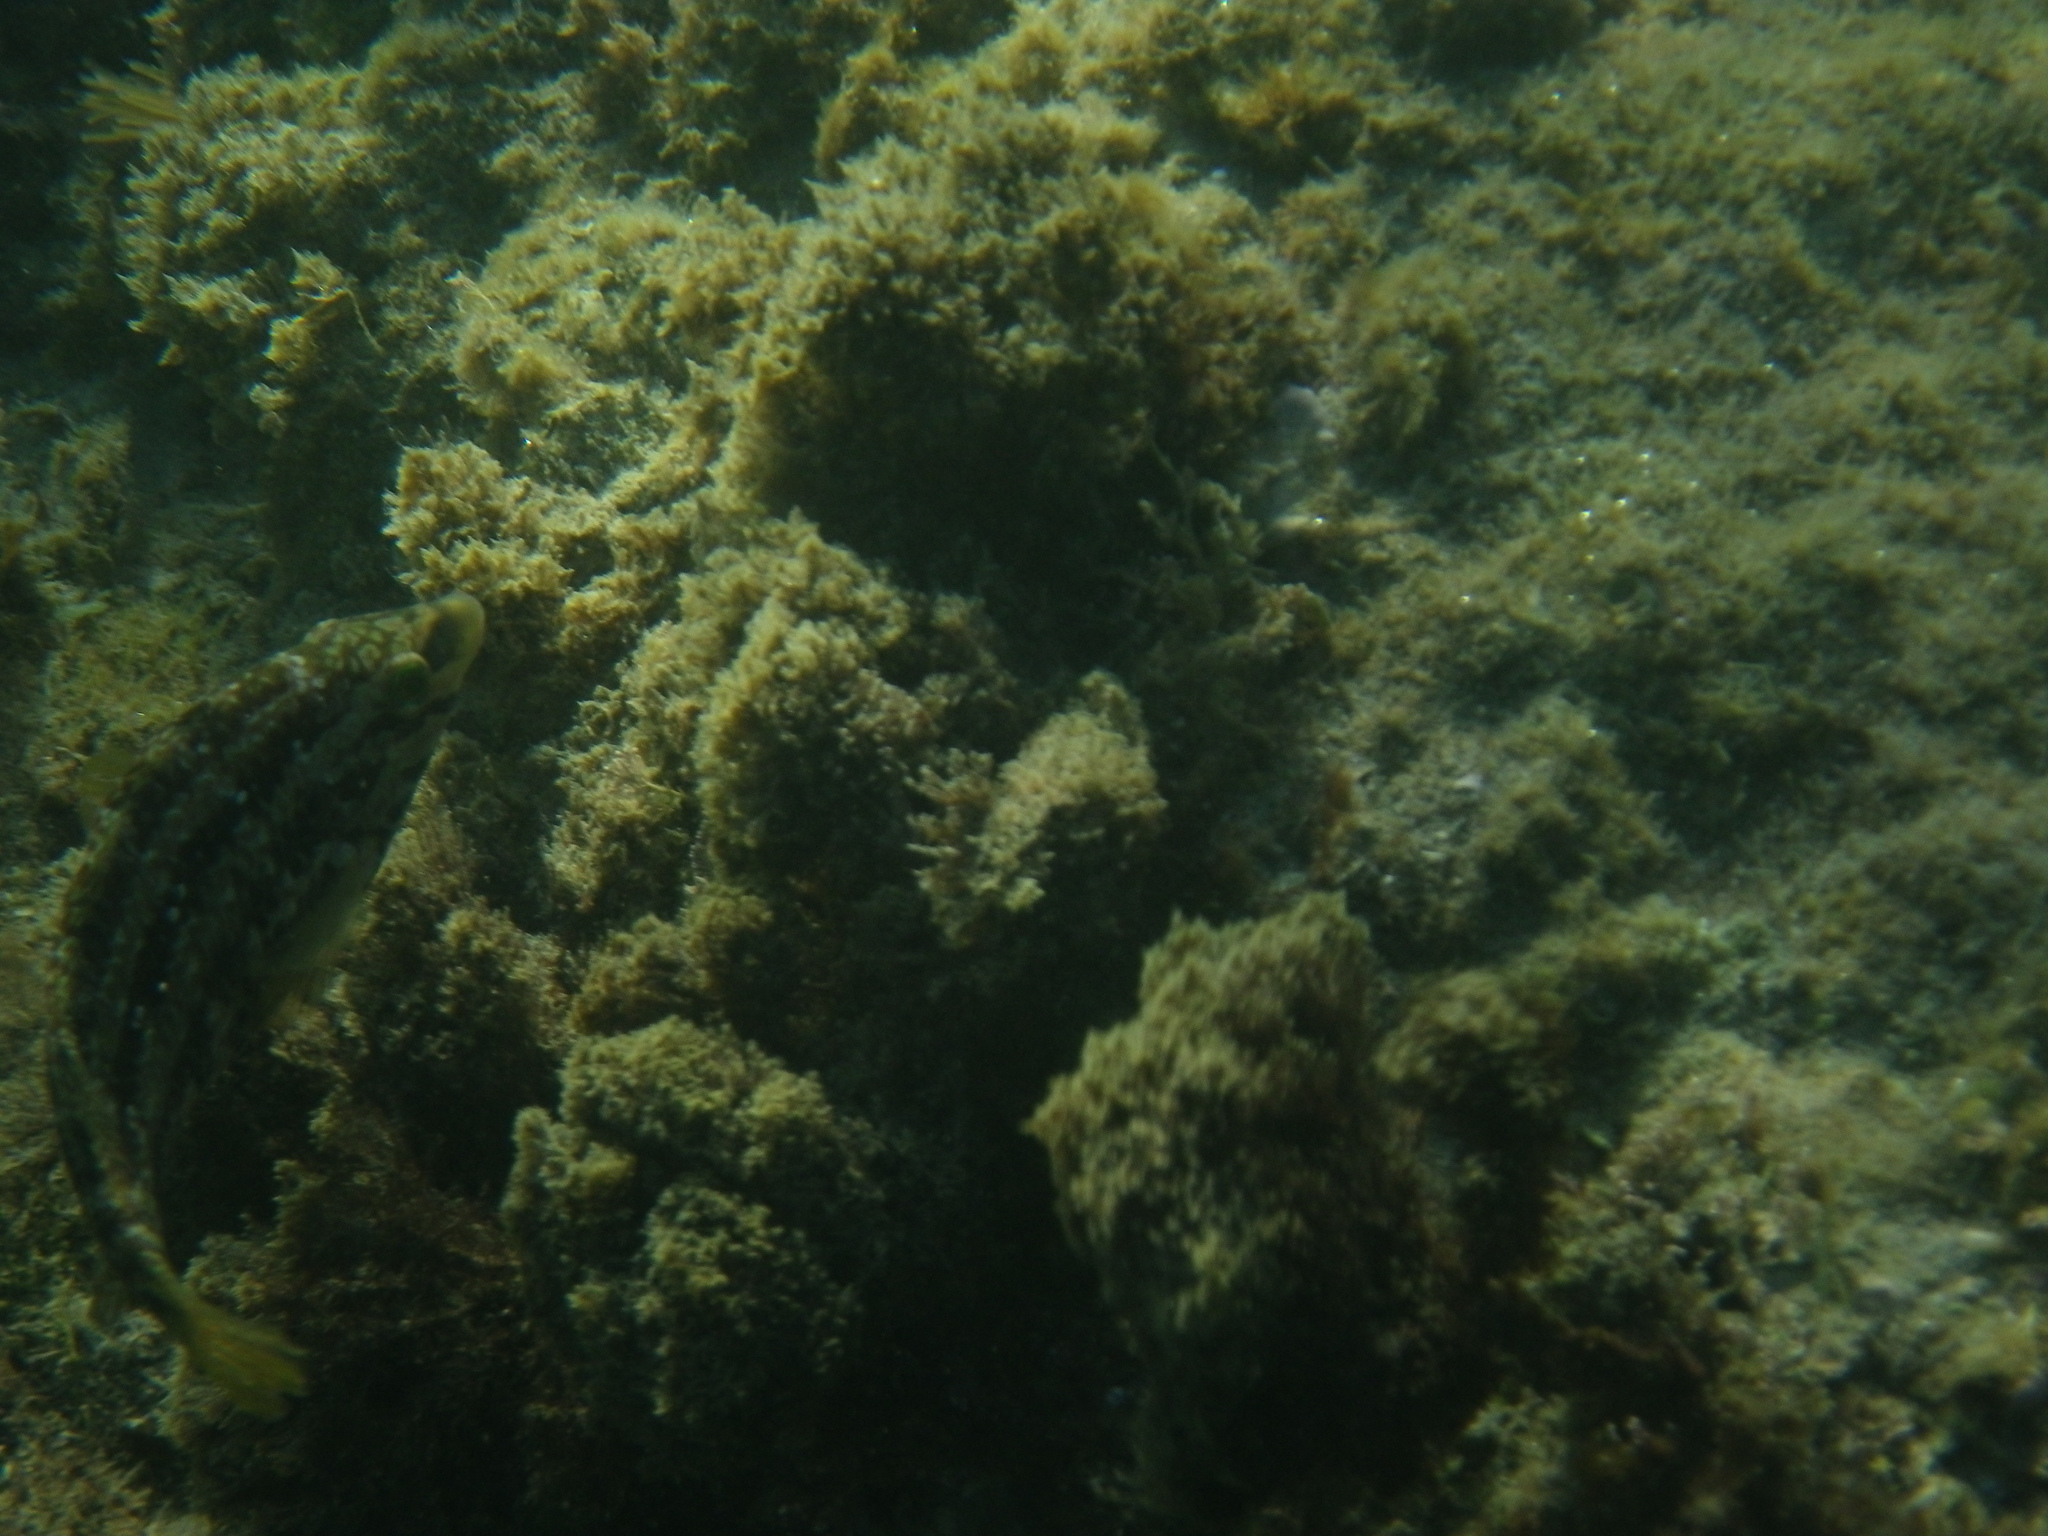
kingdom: Animalia
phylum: Chordata
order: Perciformes
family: Labridae
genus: Symphodus
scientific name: Symphodus roissali
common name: Five-spotted wrasse
